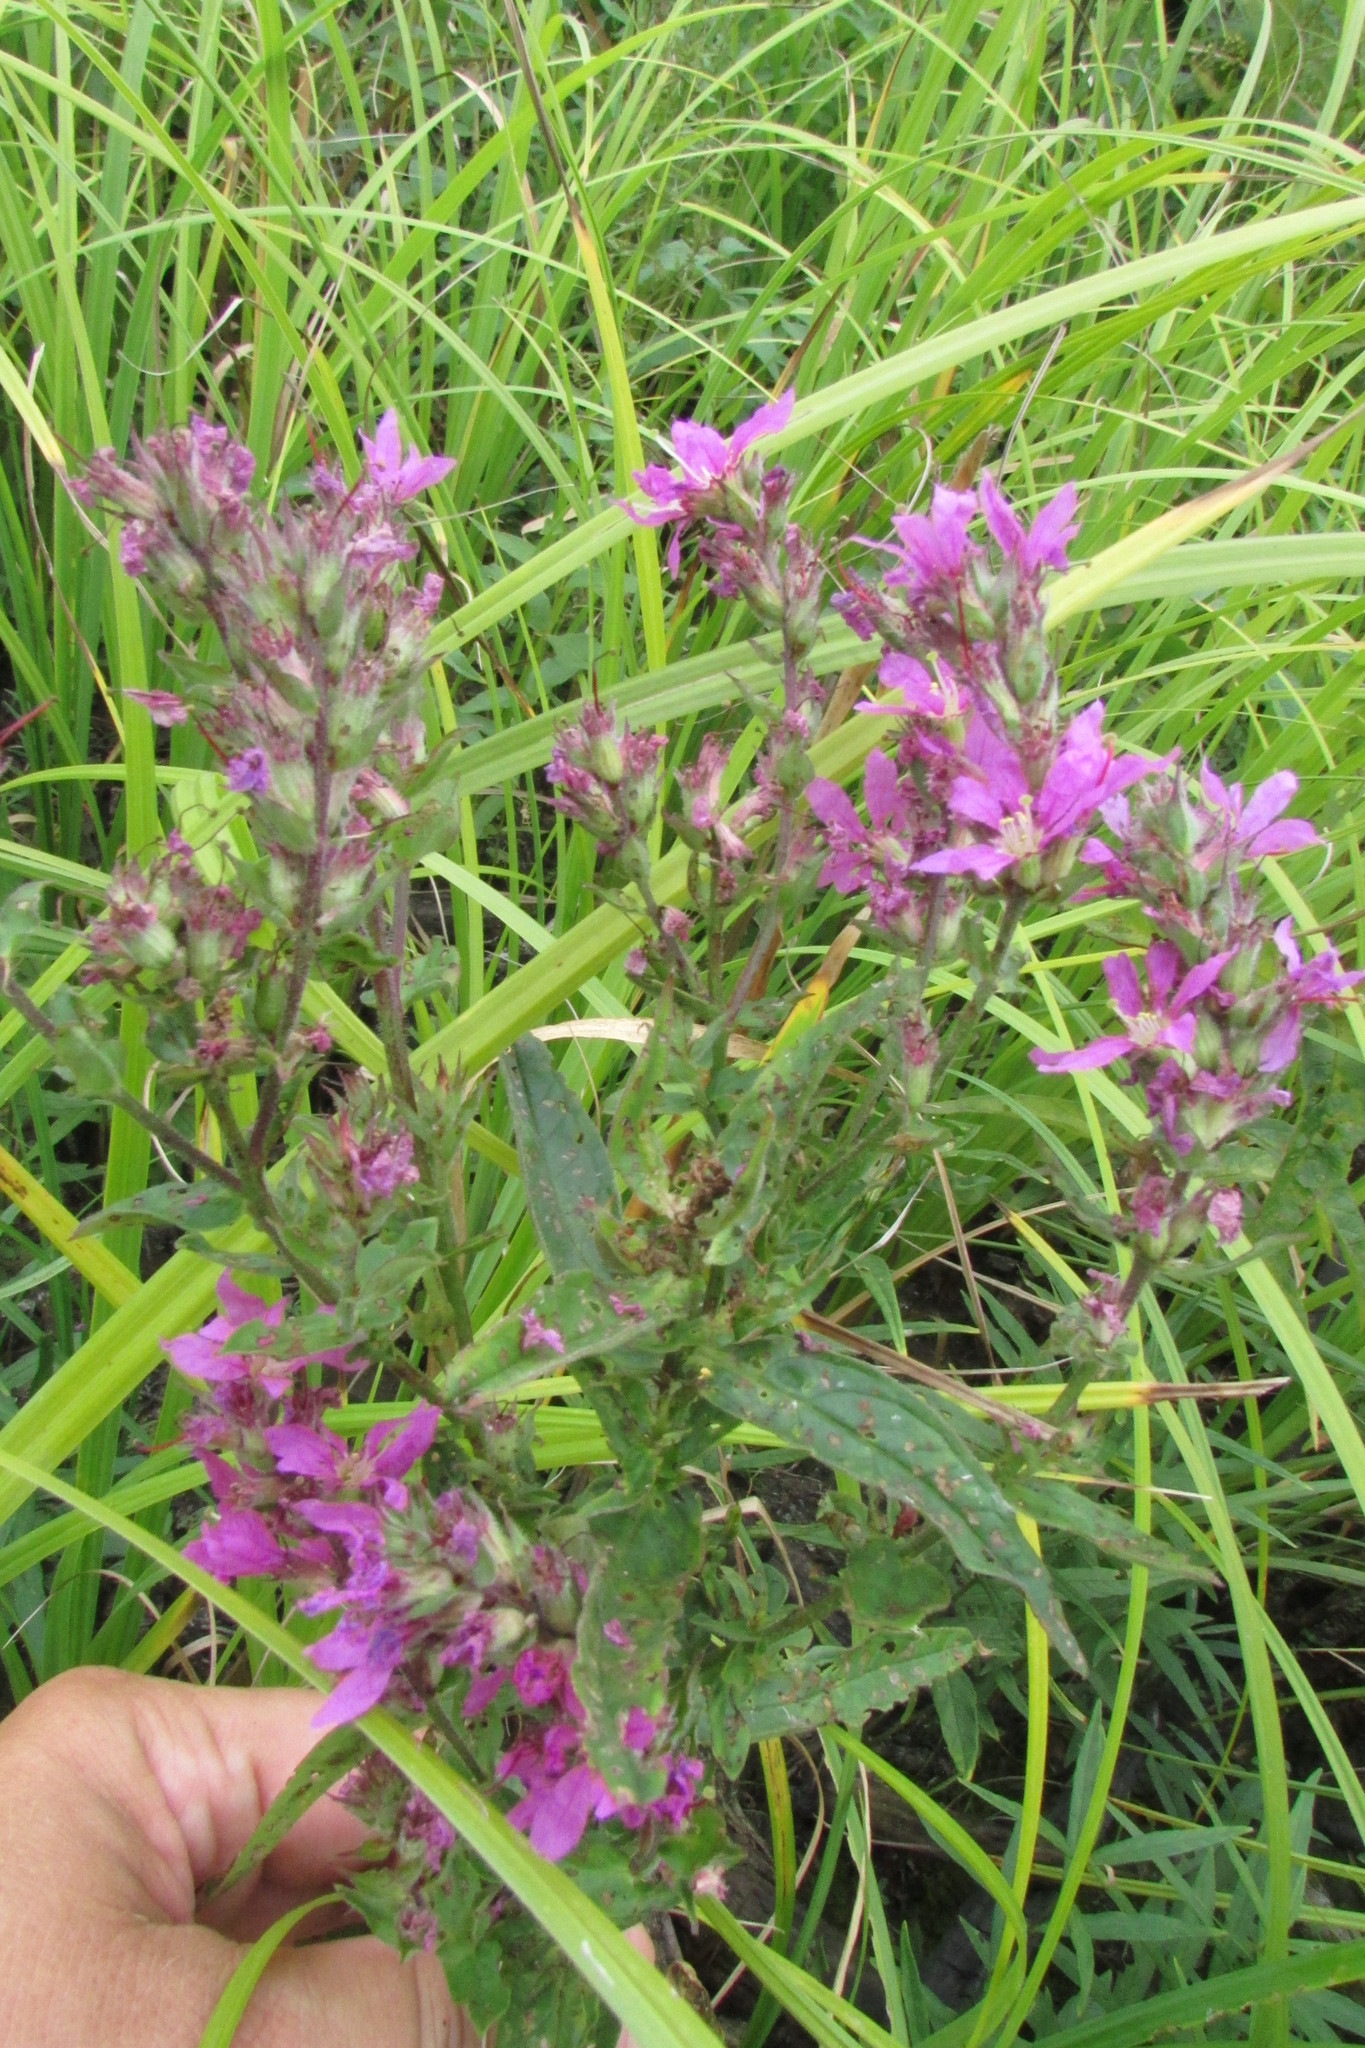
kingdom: Plantae
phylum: Tracheophyta
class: Magnoliopsida
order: Myrtales
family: Lythraceae
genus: Lythrum
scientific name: Lythrum salicaria
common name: Purple loosestrife
